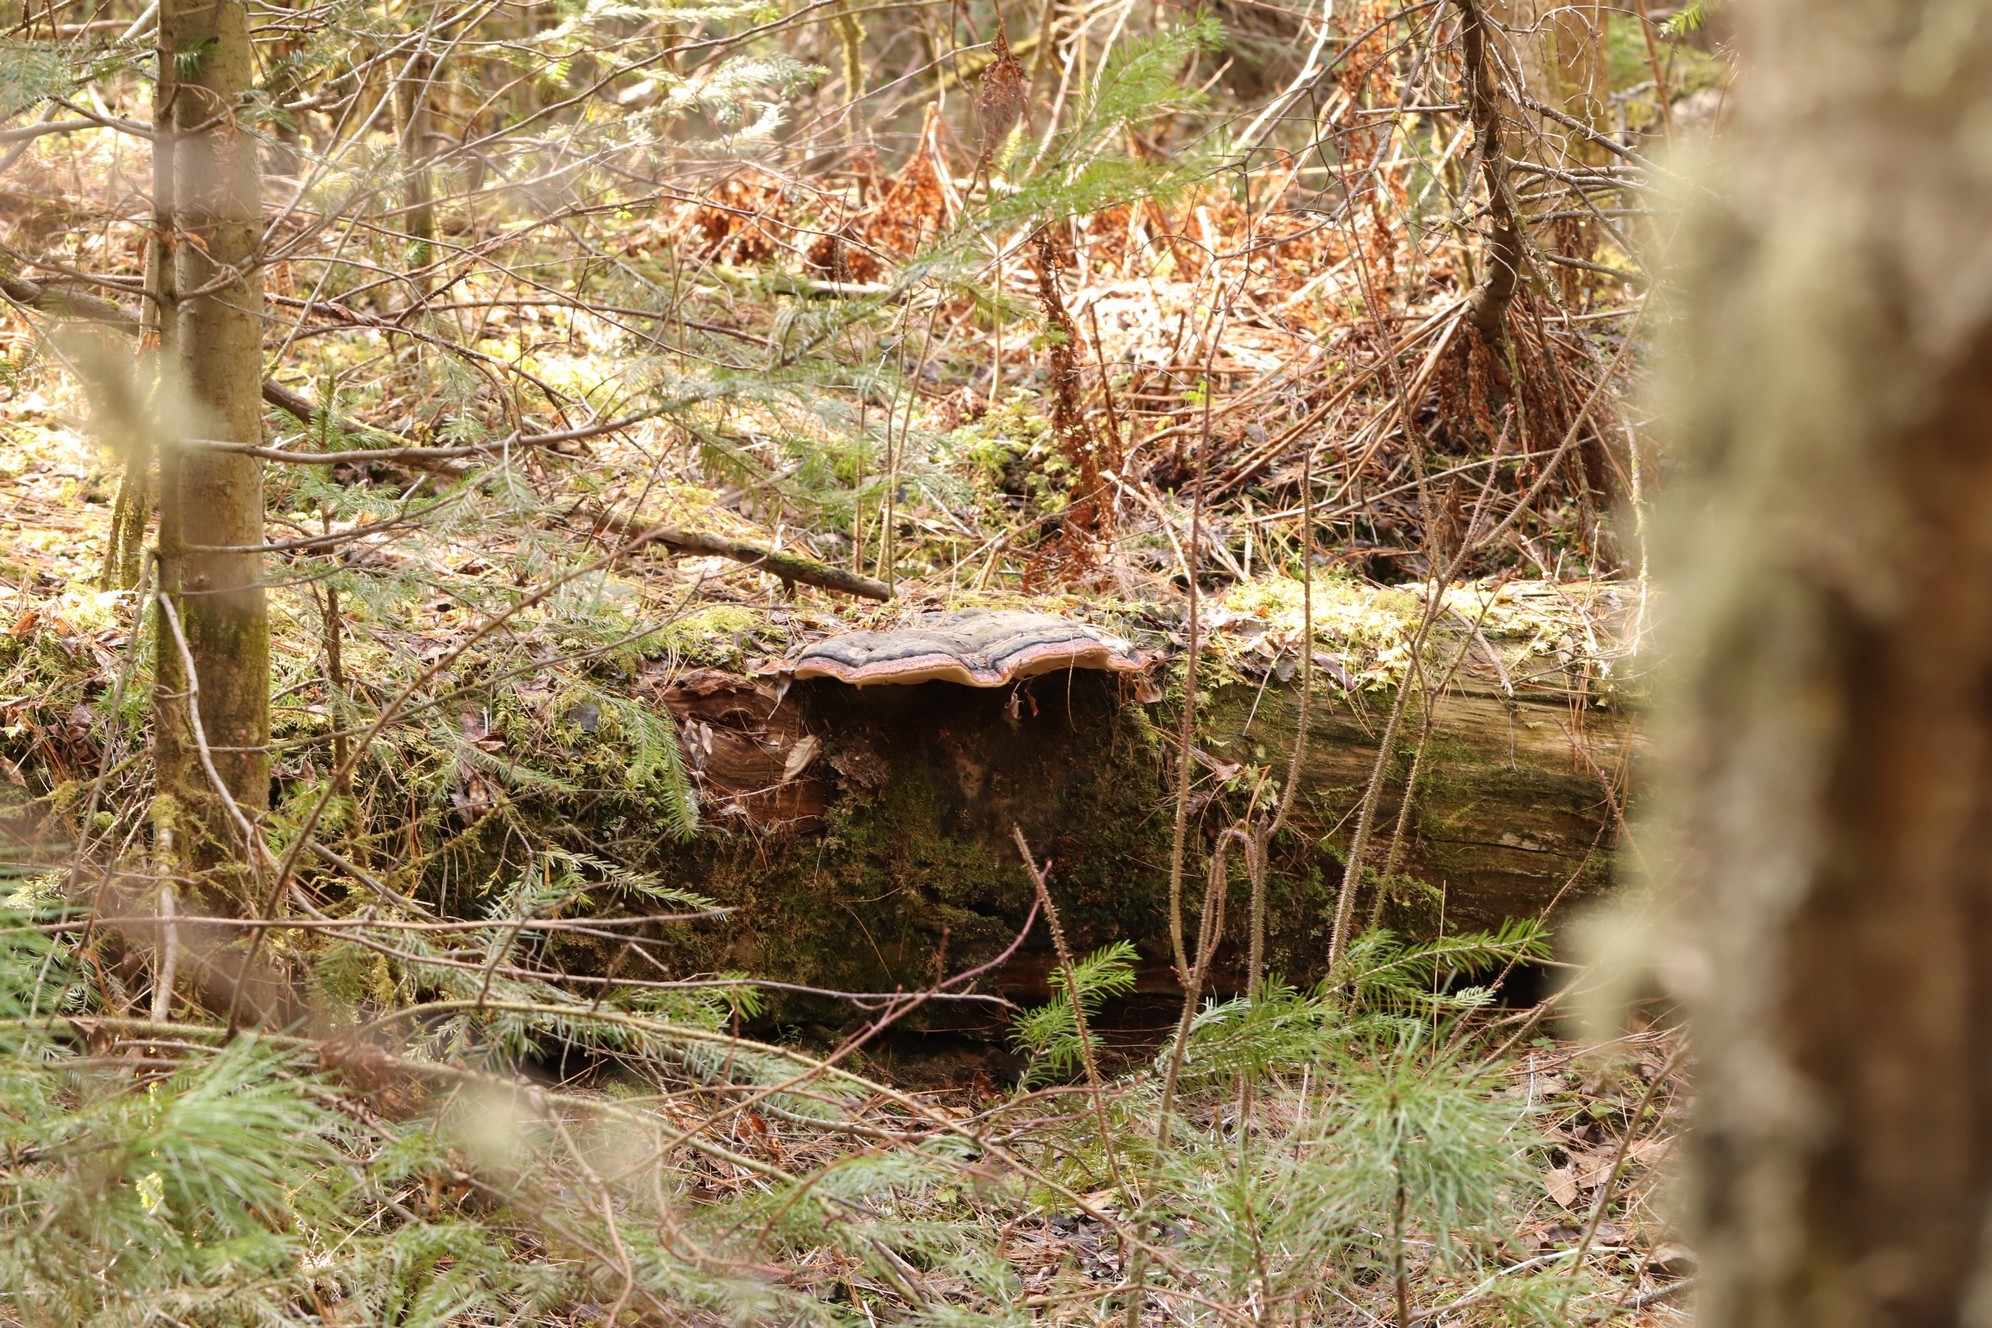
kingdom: Fungi
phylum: Basidiomycota
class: Agaricomycetes
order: Polyporales
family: Fomitopsidaceae
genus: Fomitopsis
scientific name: Fomitopsis pinicola
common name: Red-belted bracket
